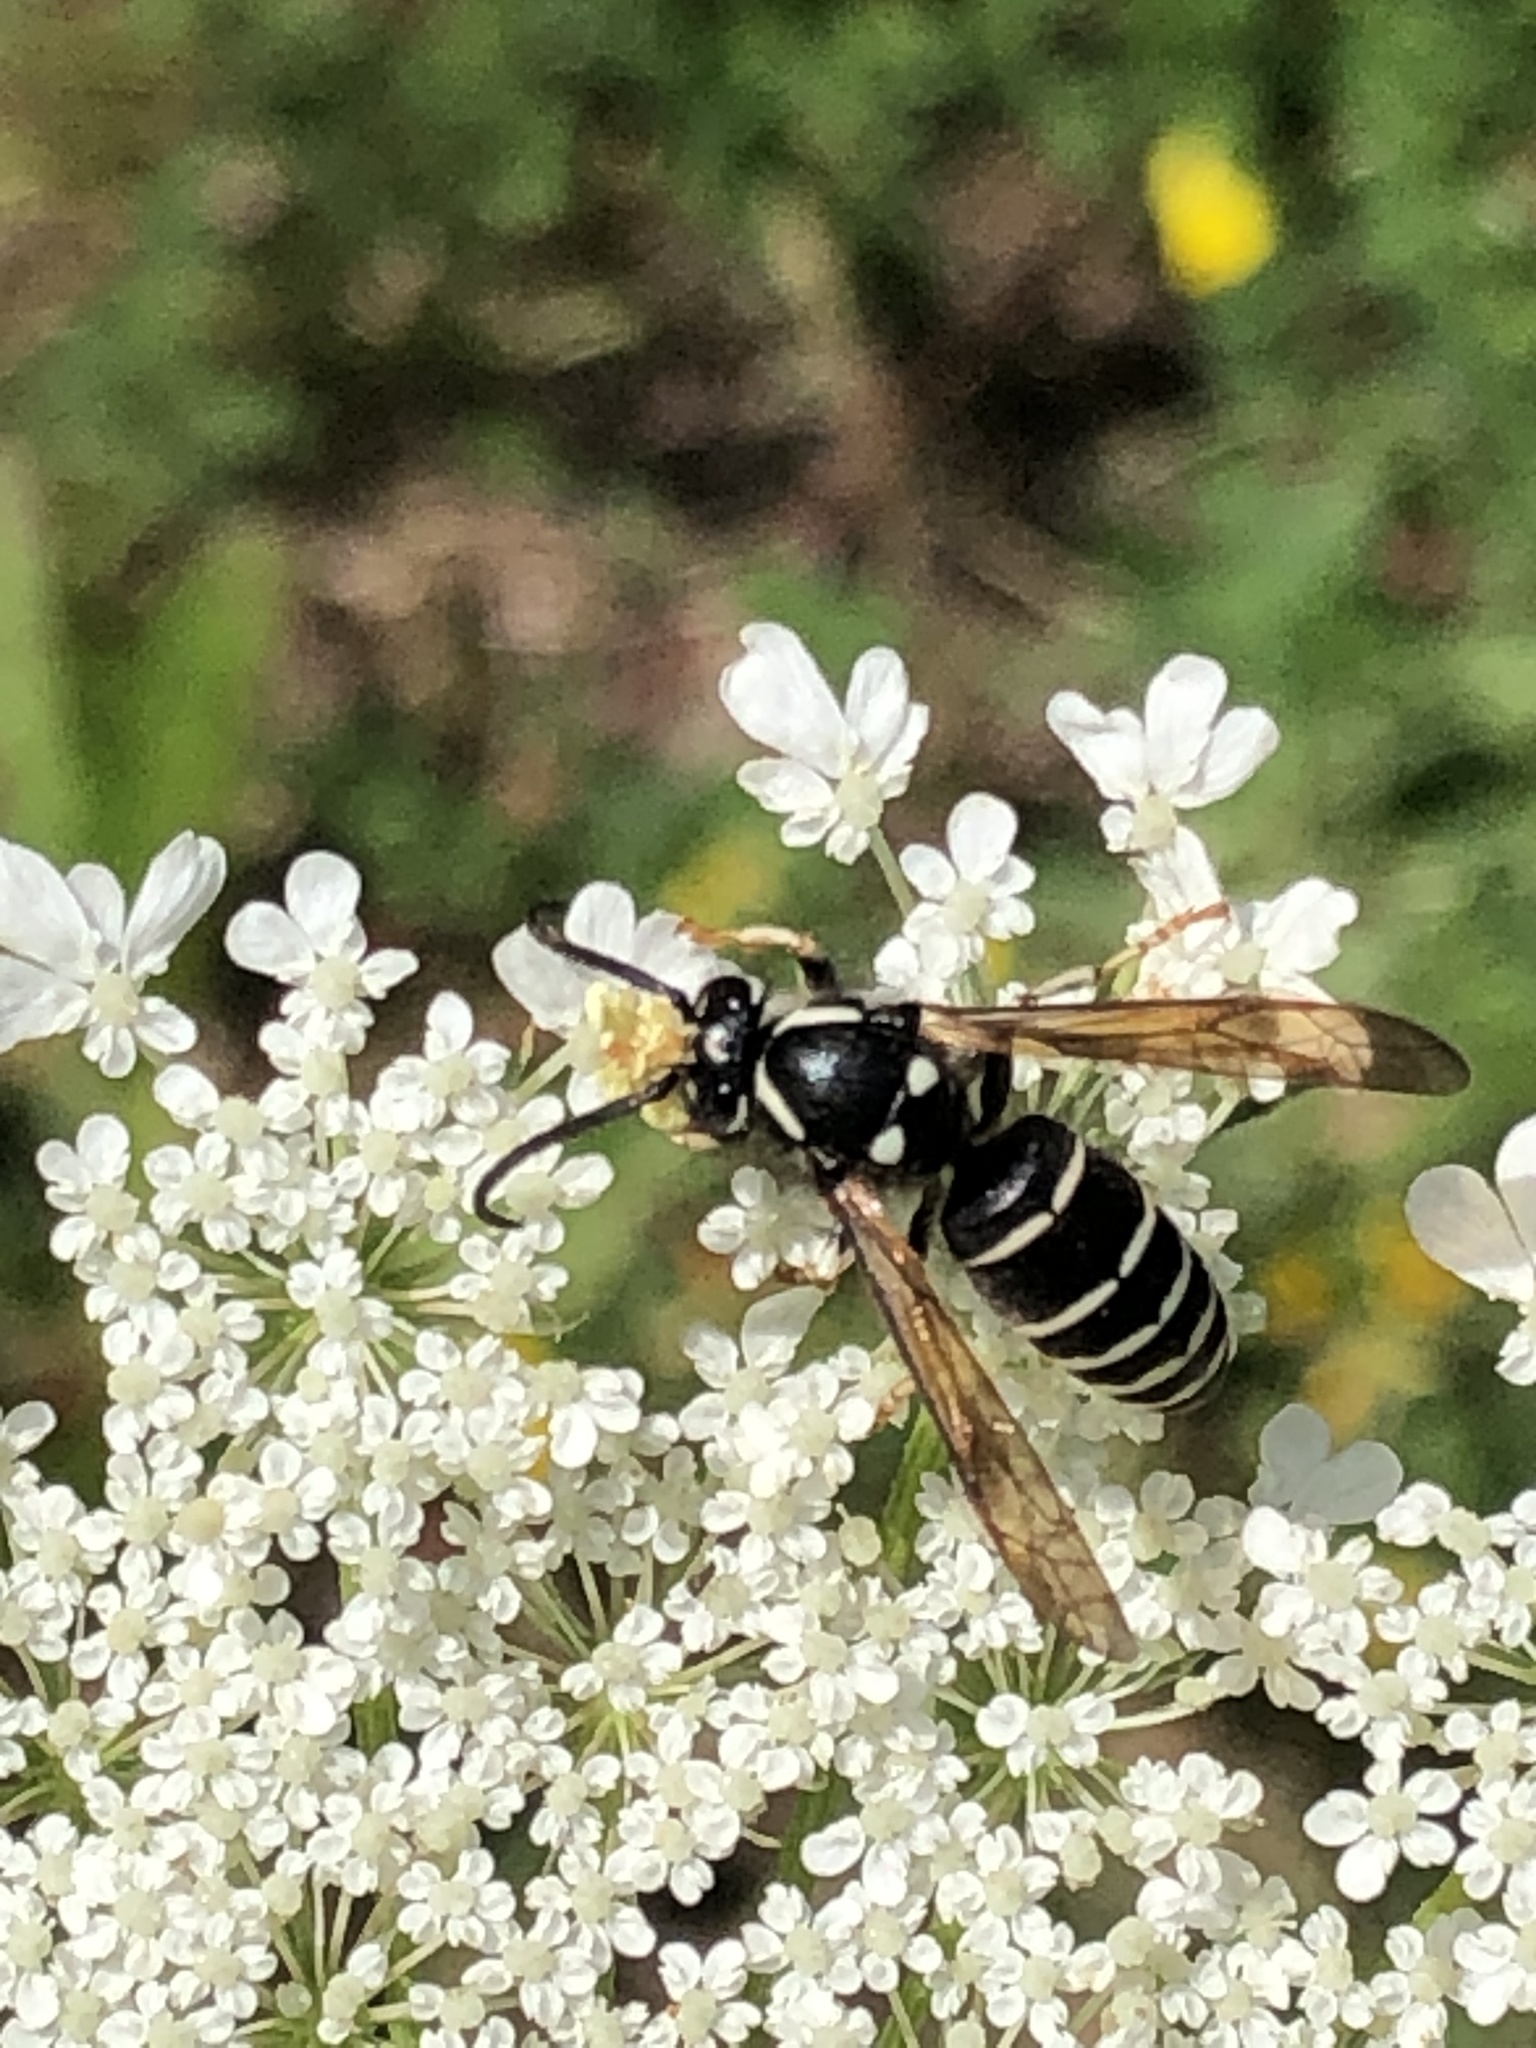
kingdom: Animalia
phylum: Arthropoda
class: Insecta
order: Hymenoptera
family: Vespidae
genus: Vespula
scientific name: Vespula consobrina
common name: Blackjacket
